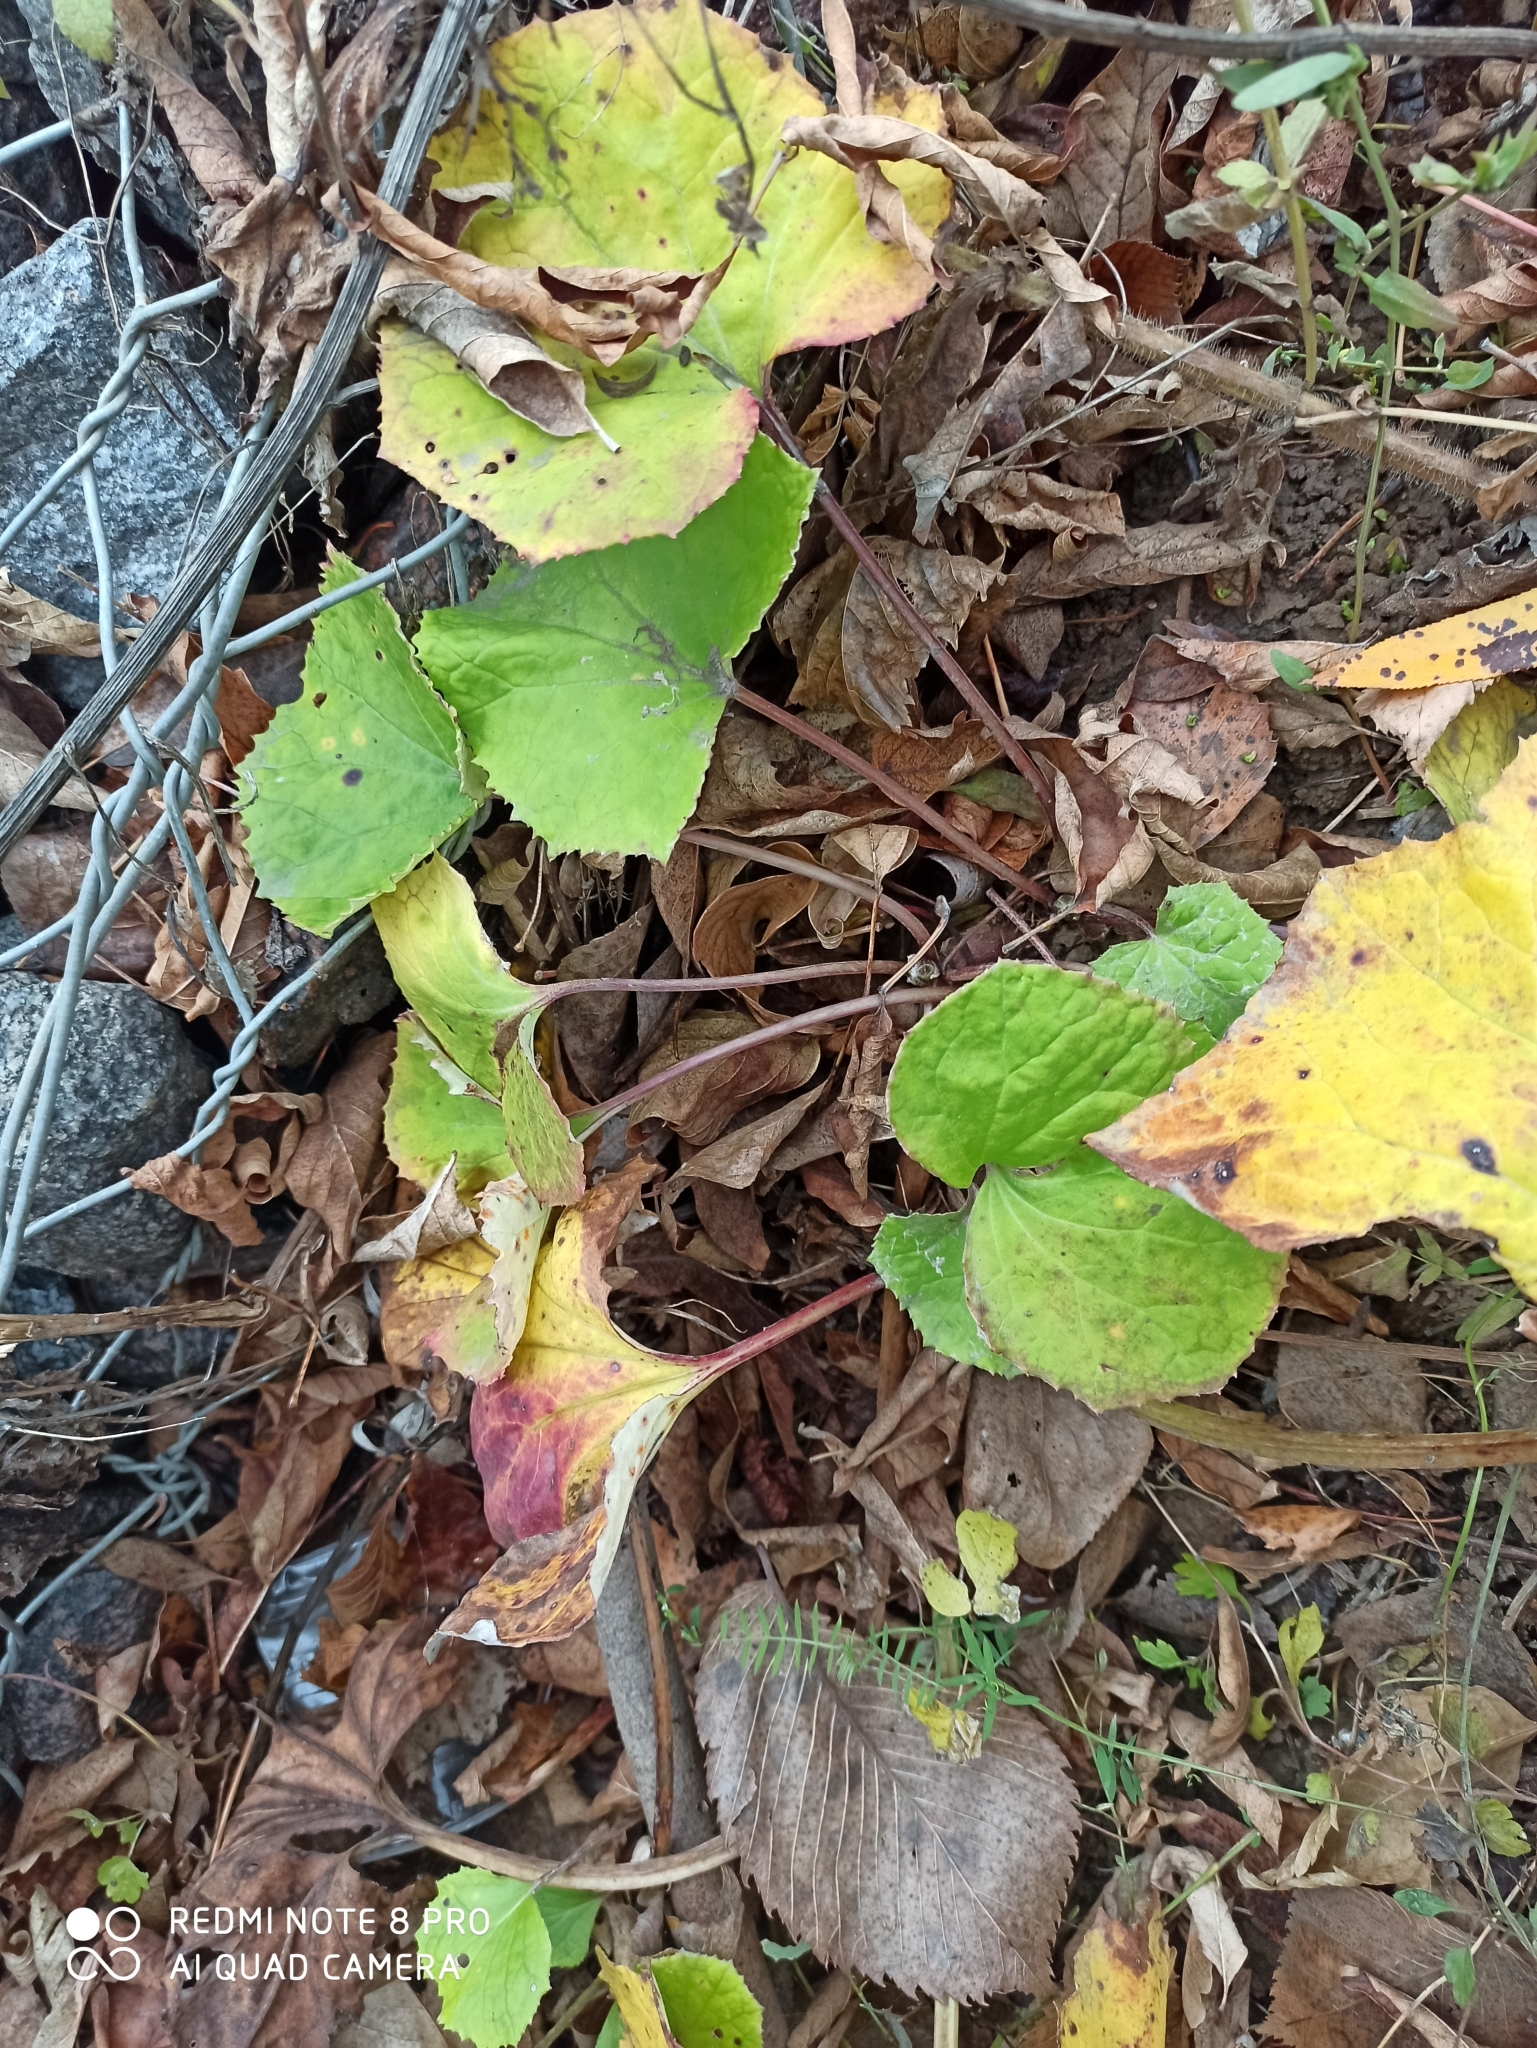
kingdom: Plantae
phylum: Tracheophyta
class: Magnoliopsida
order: Asterales
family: Asteraceae
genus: Tussilago
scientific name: Tussilago farfara
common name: Coltsfoot
